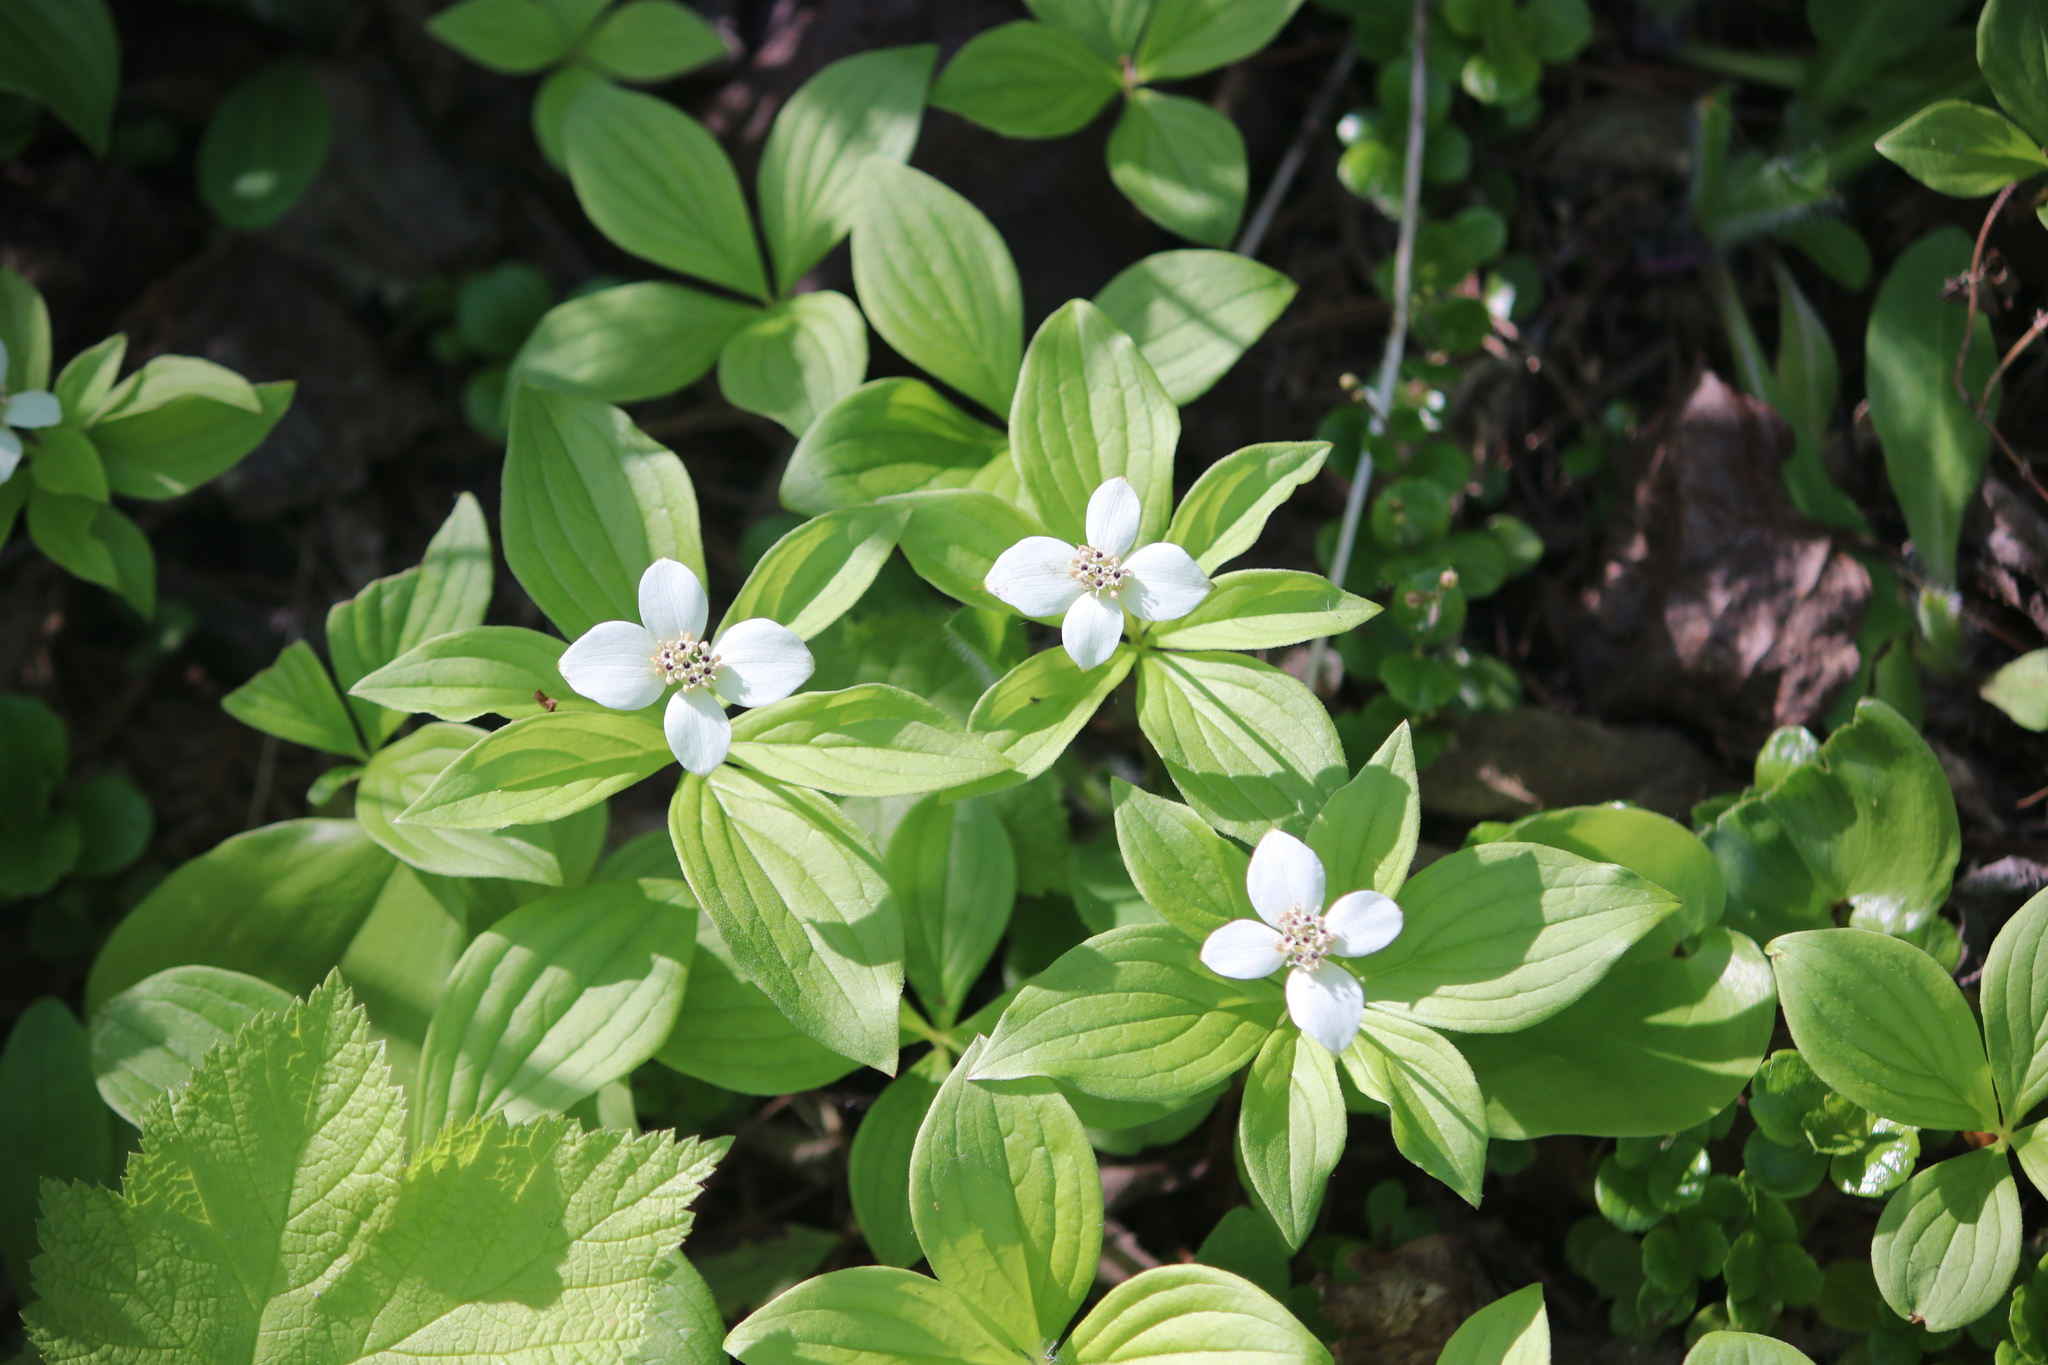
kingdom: Plantae
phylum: Tracheophyta
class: Magnoliopsida
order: Cornales
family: Cornaceae
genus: Cornus
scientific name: Cornus canadensis
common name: Creeping dogwood
